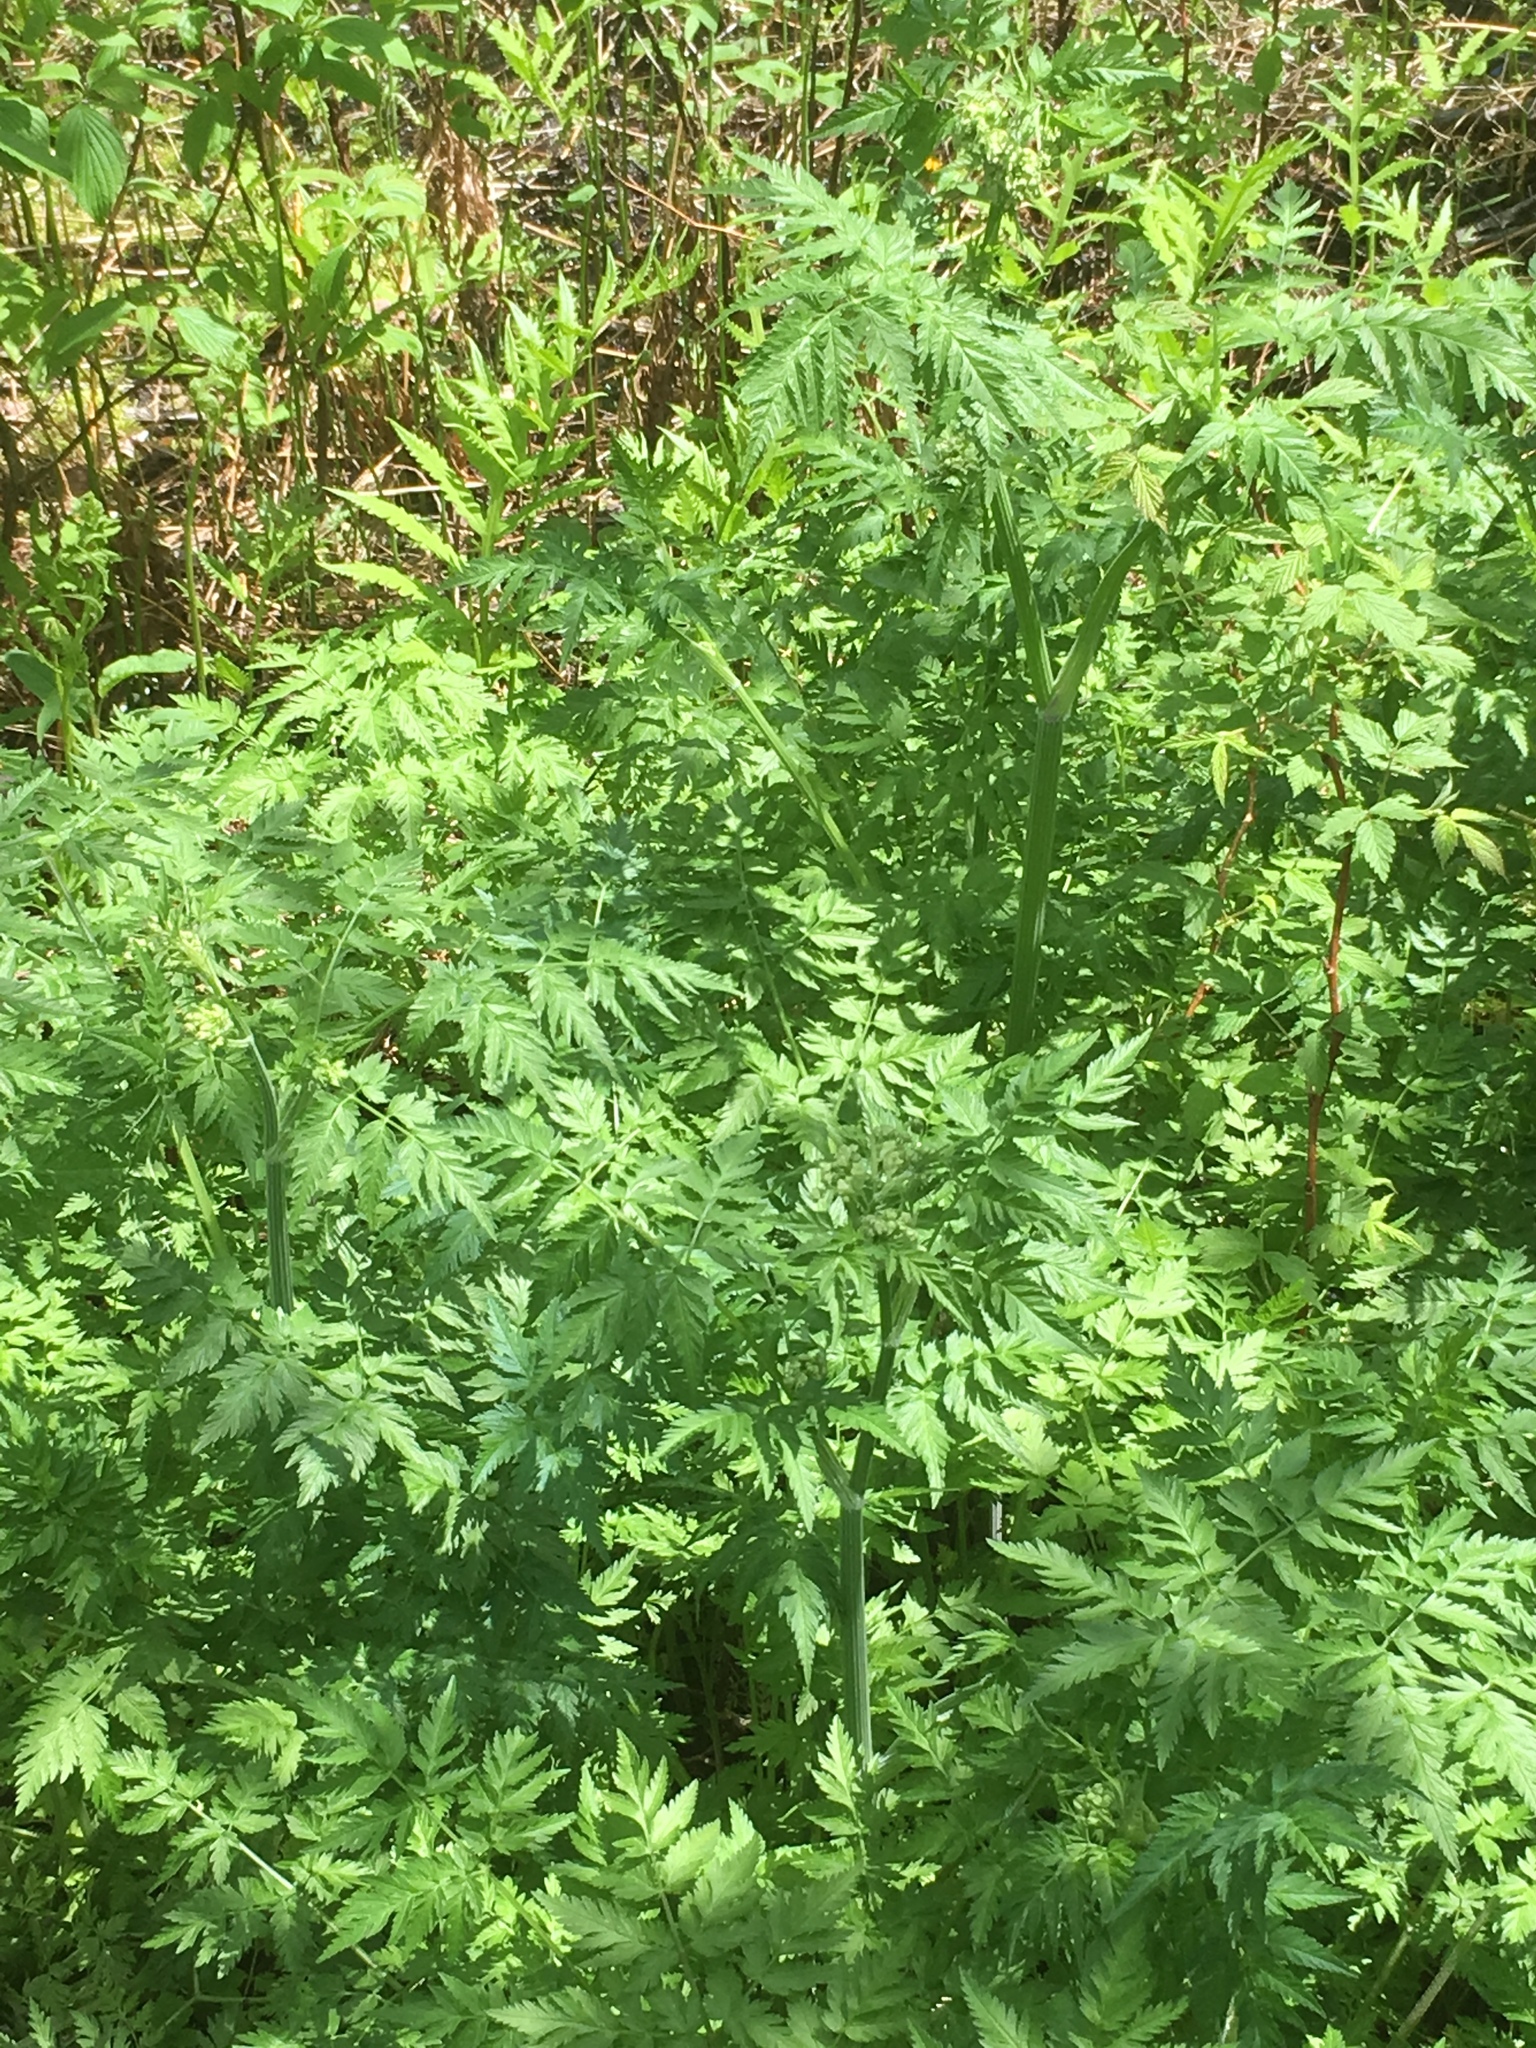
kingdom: Plantae
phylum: Tracheophyta
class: Magnoliopsida
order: Apiales
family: Apiaceae
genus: Anthriscus
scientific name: Anthriscus sylvestris
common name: Cow parsley
